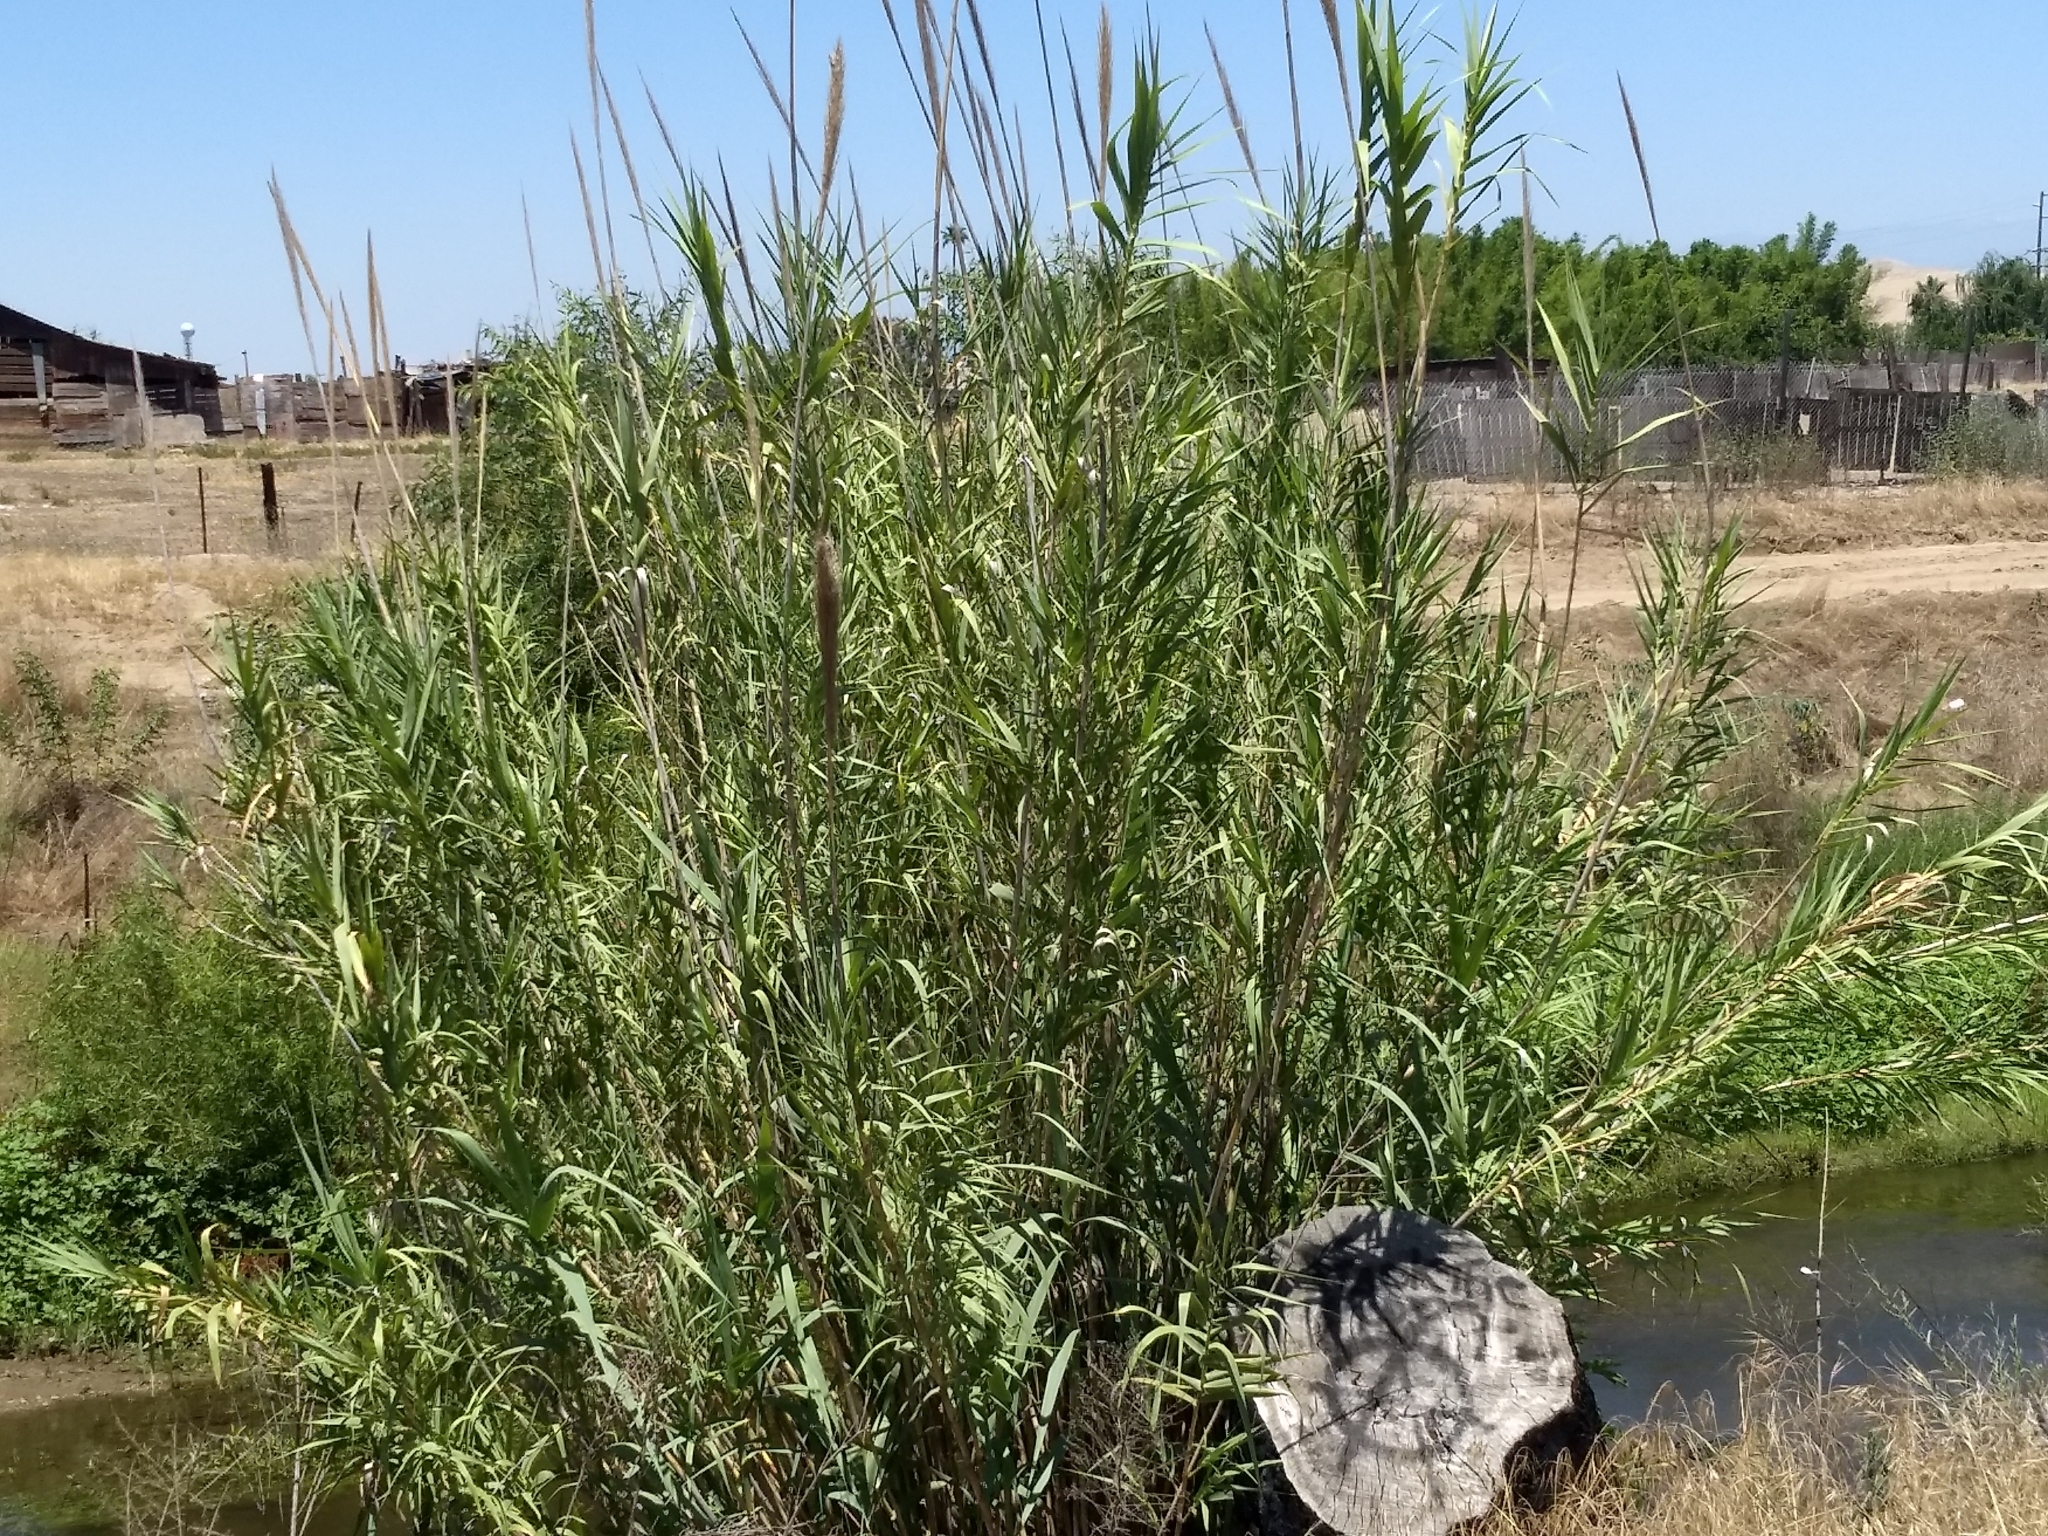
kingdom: Plantae
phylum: Tracheophyta
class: Liliopsida
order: Poales
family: Poaceae
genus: Arundo
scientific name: Arundo donax
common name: Giant reed
